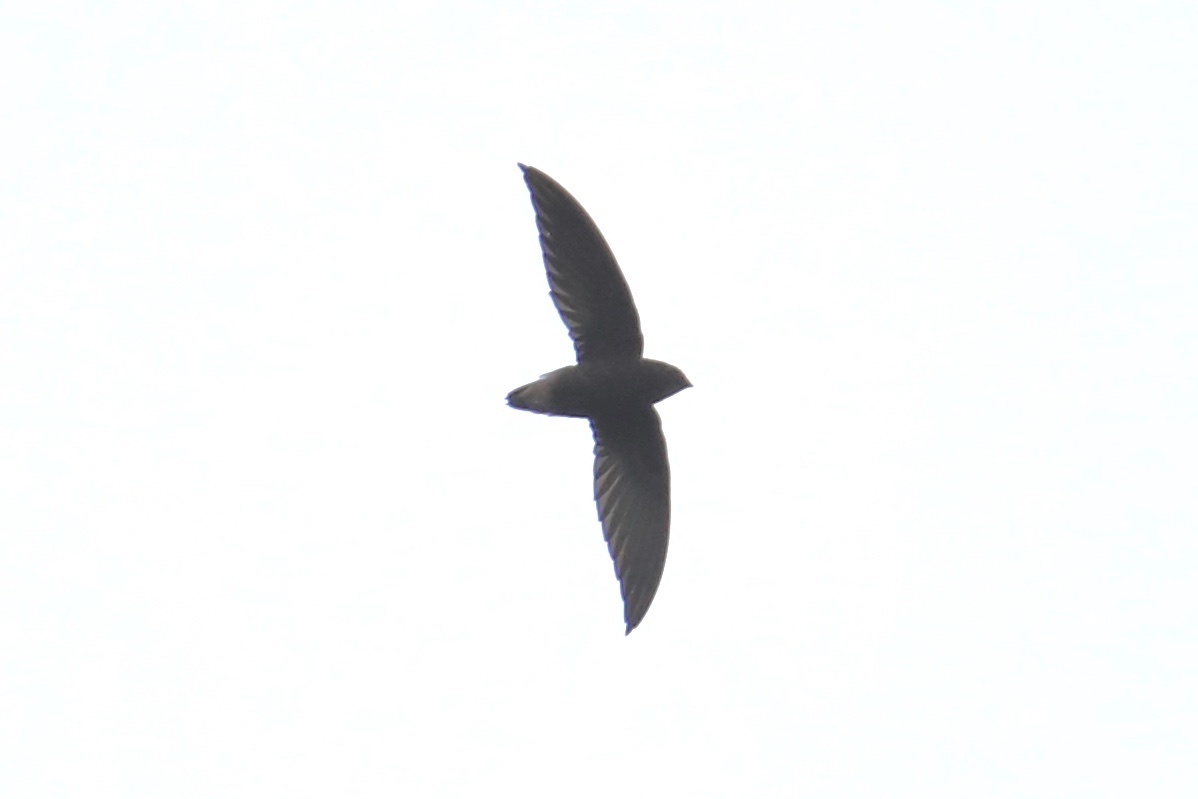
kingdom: Animalia
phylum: Chordata
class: Aves
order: Apodiformes
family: Apodidae
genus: Chaetura
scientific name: Chaetura brachyura
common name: Short-tailed swift
